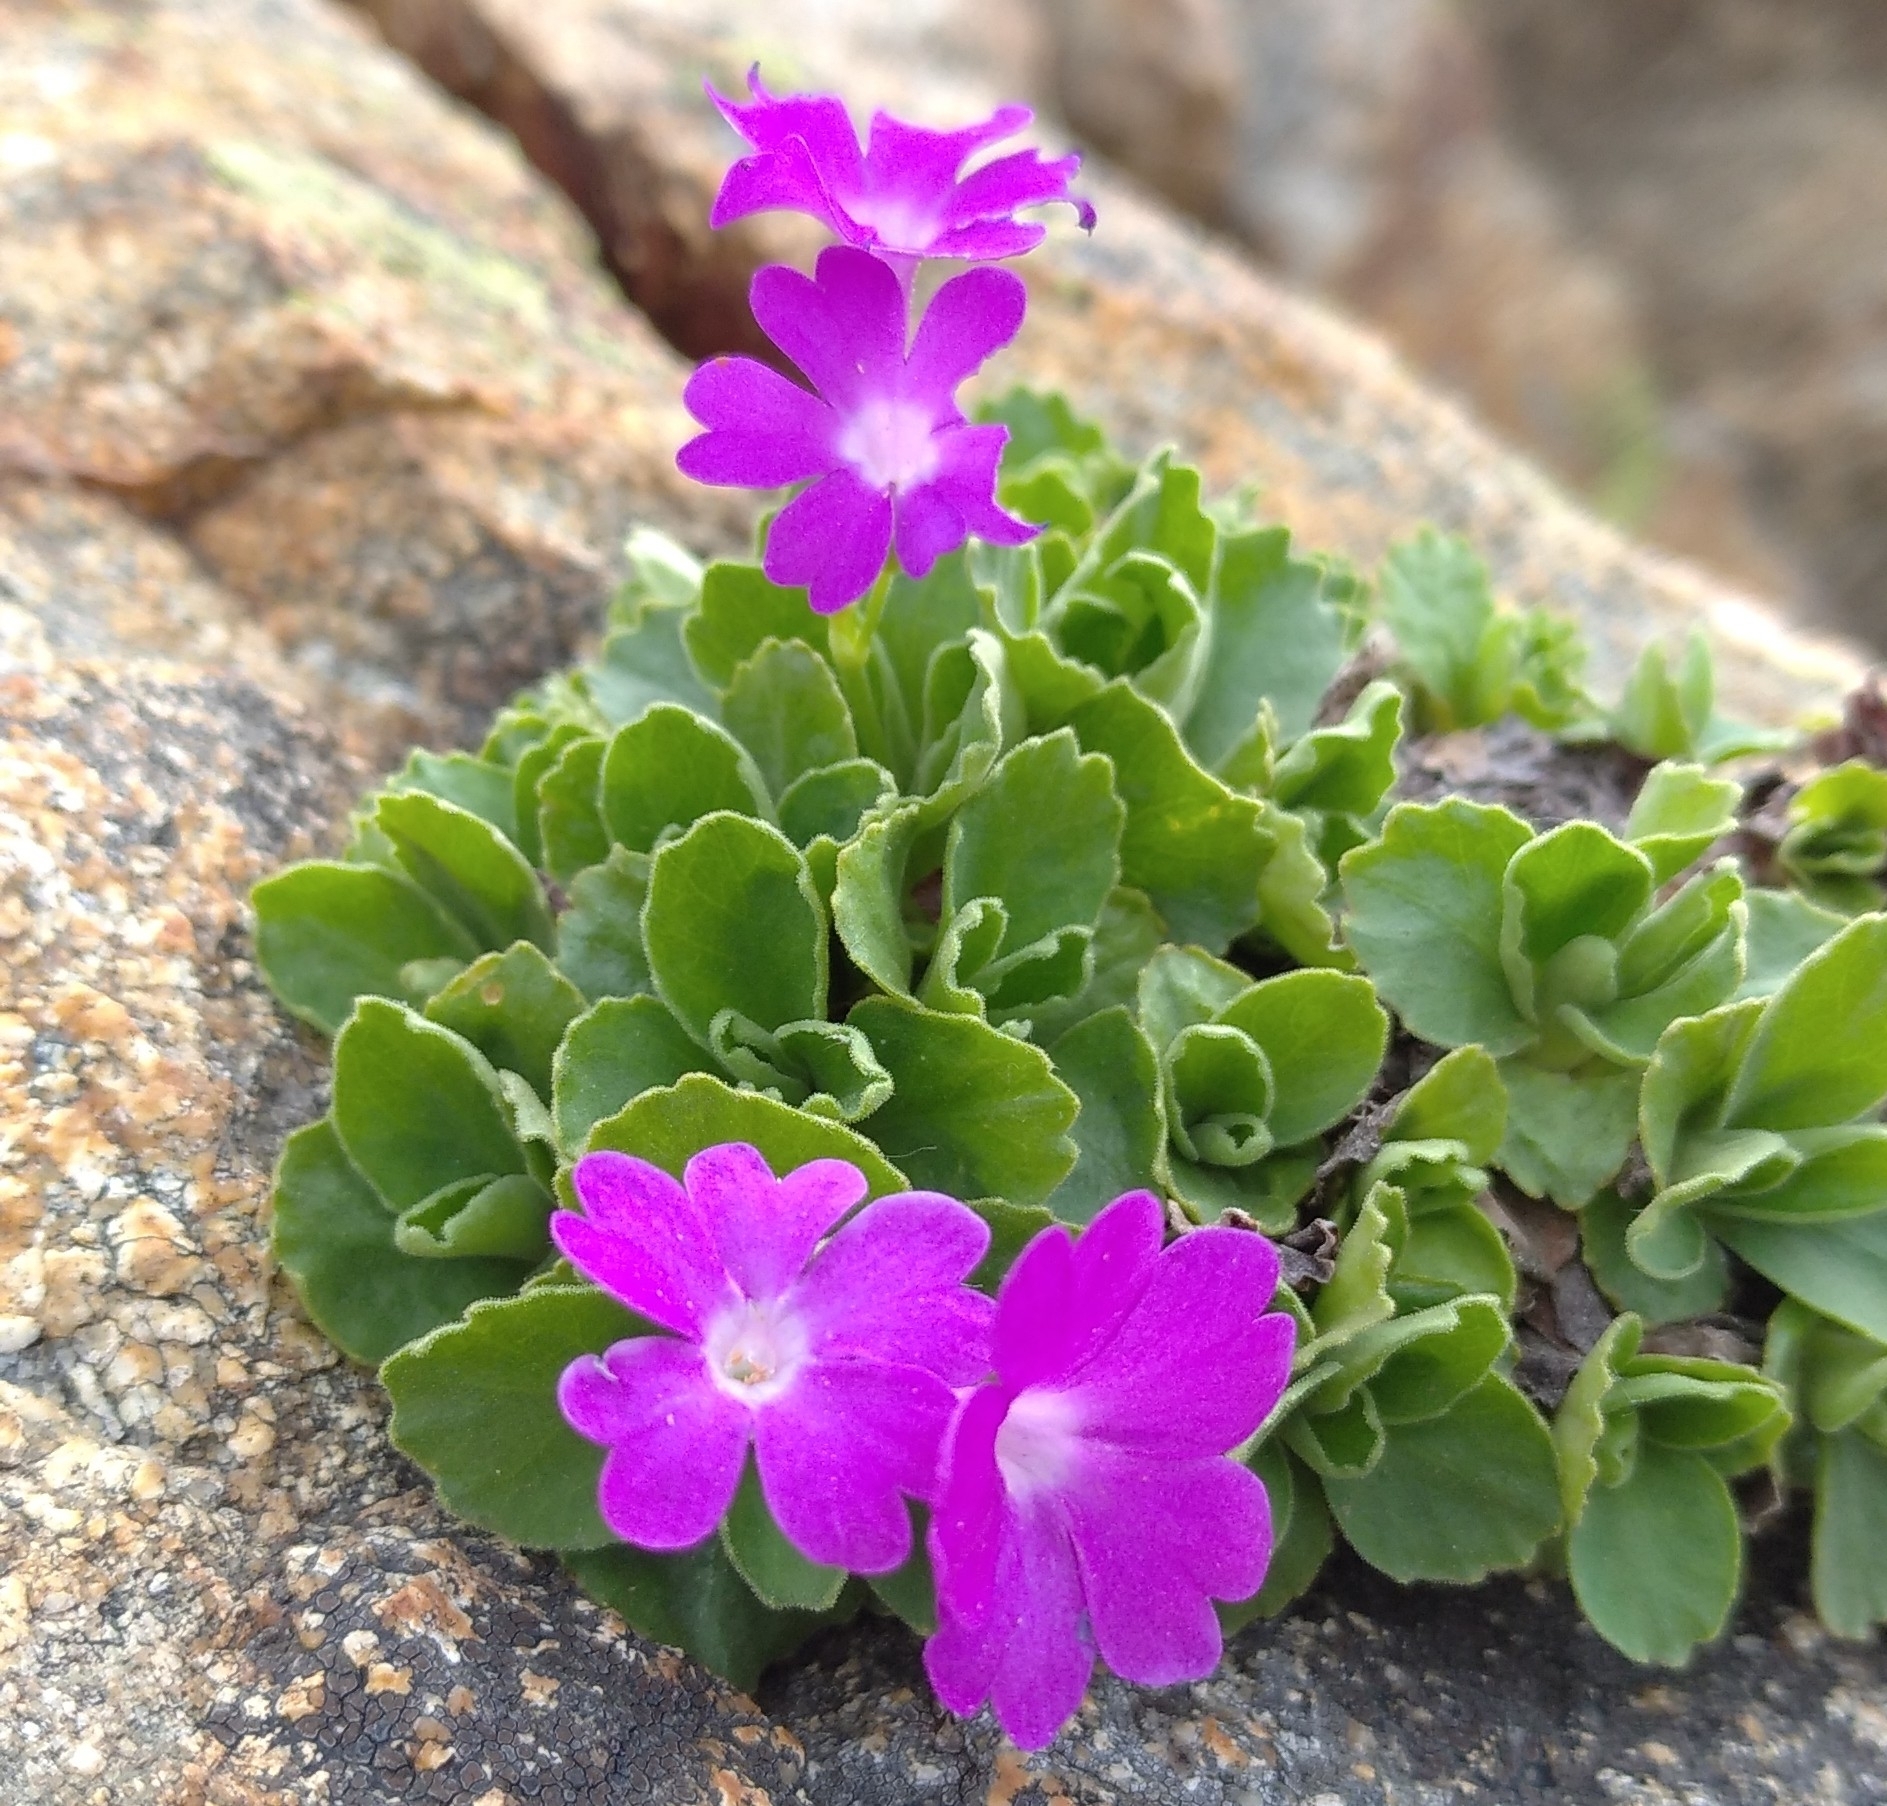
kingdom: Plantae
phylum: Tracheophyta
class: Magnoliopsida
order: Ericales
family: Primulaceae
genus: Primula
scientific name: Primula hirsuta
